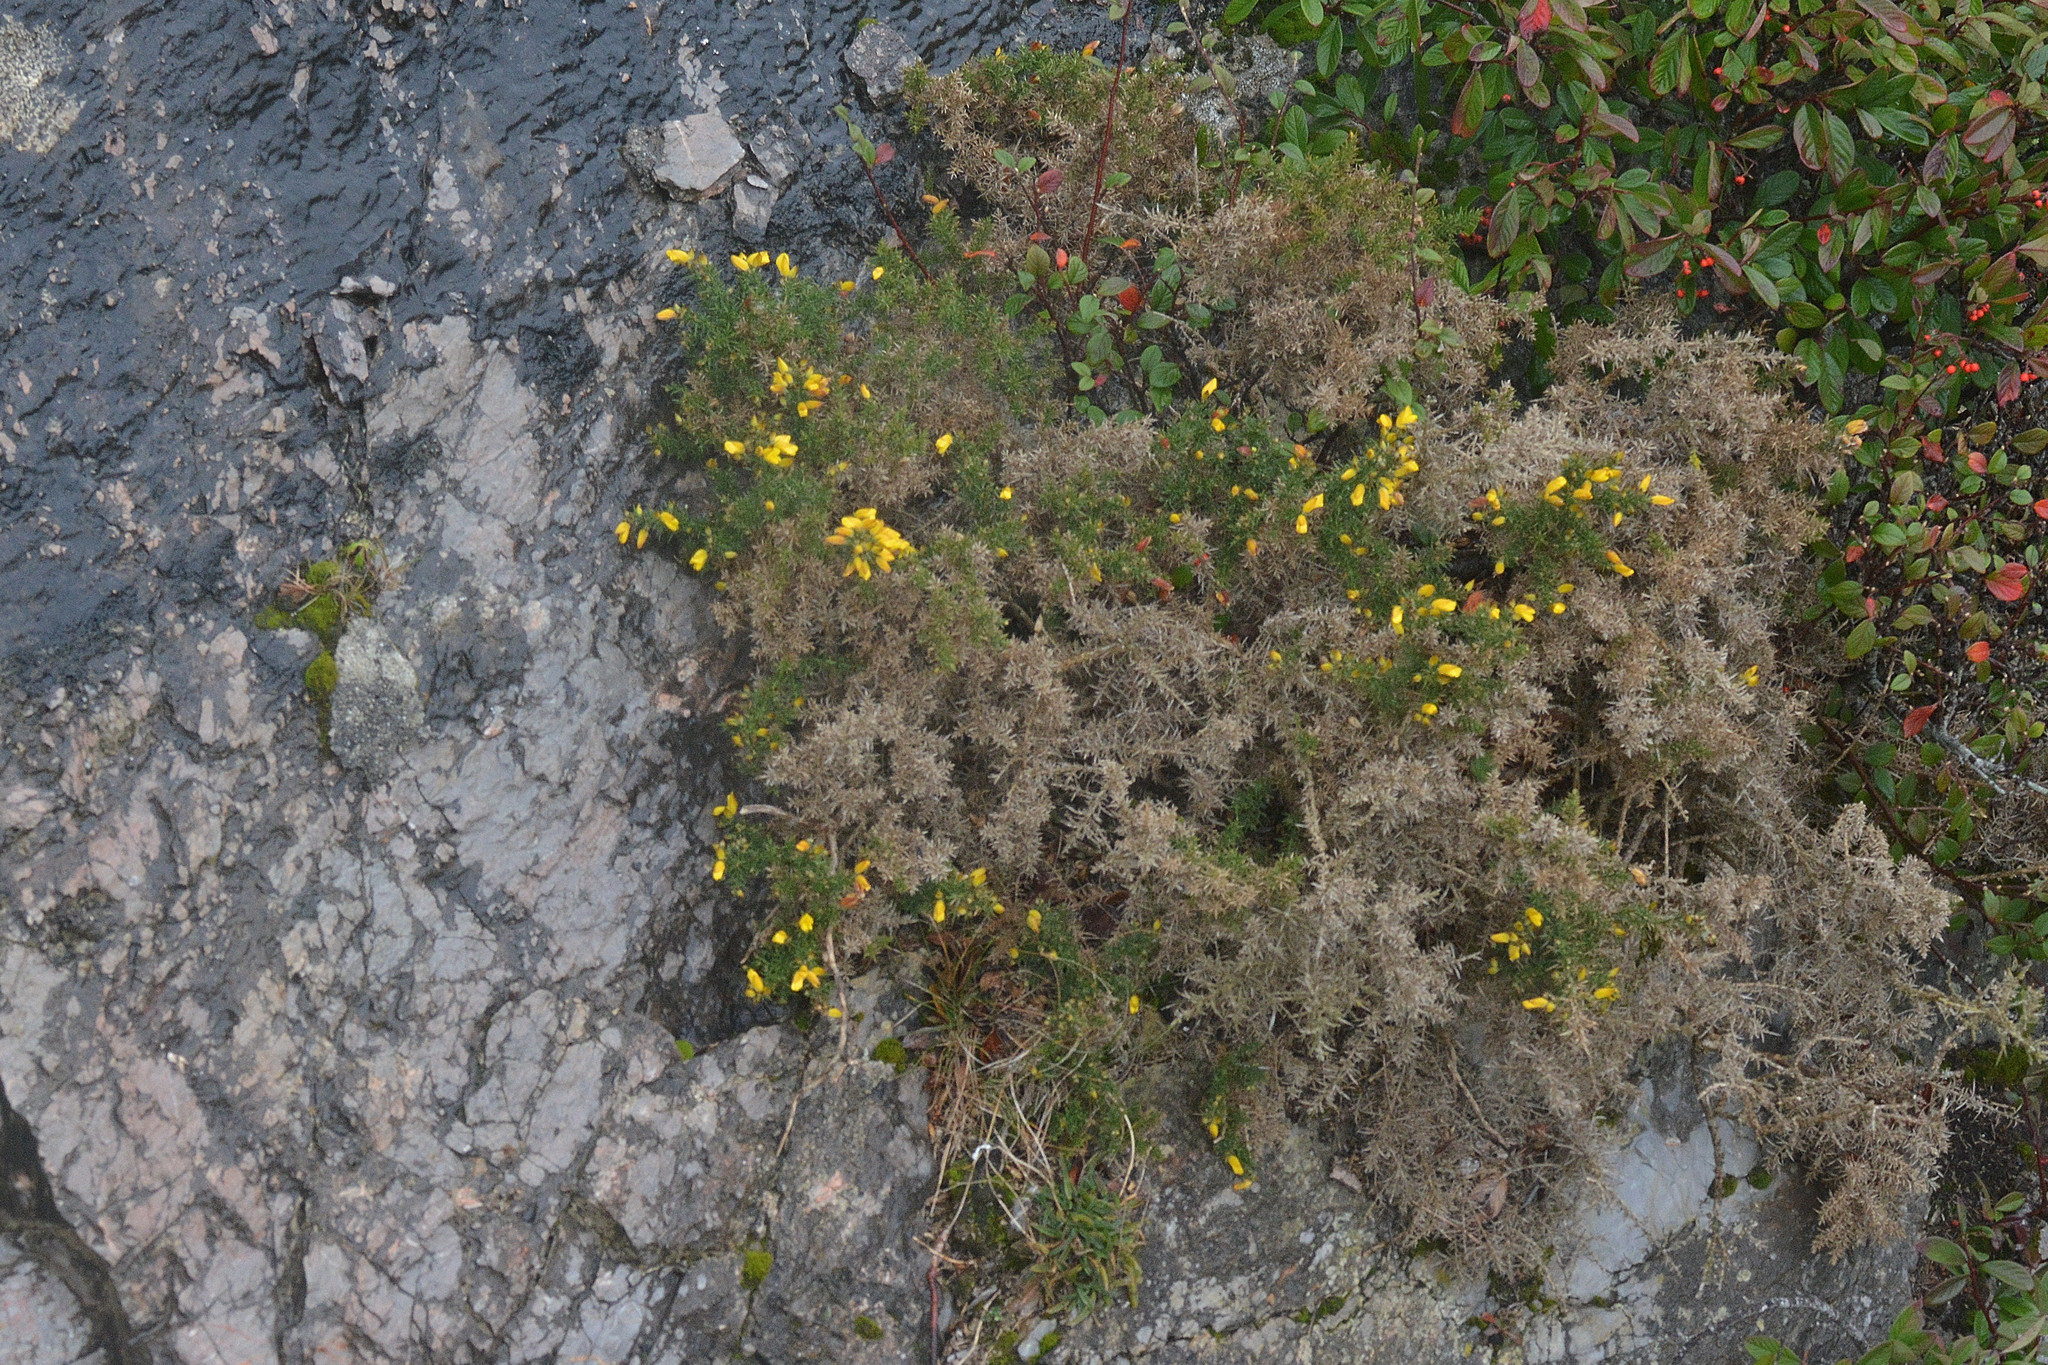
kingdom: Plantae
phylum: Tracheophyta
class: Magnoliopsida
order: Fabales
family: Fabaceae
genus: Ulex
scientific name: Ulex europaeus
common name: Common gorse
